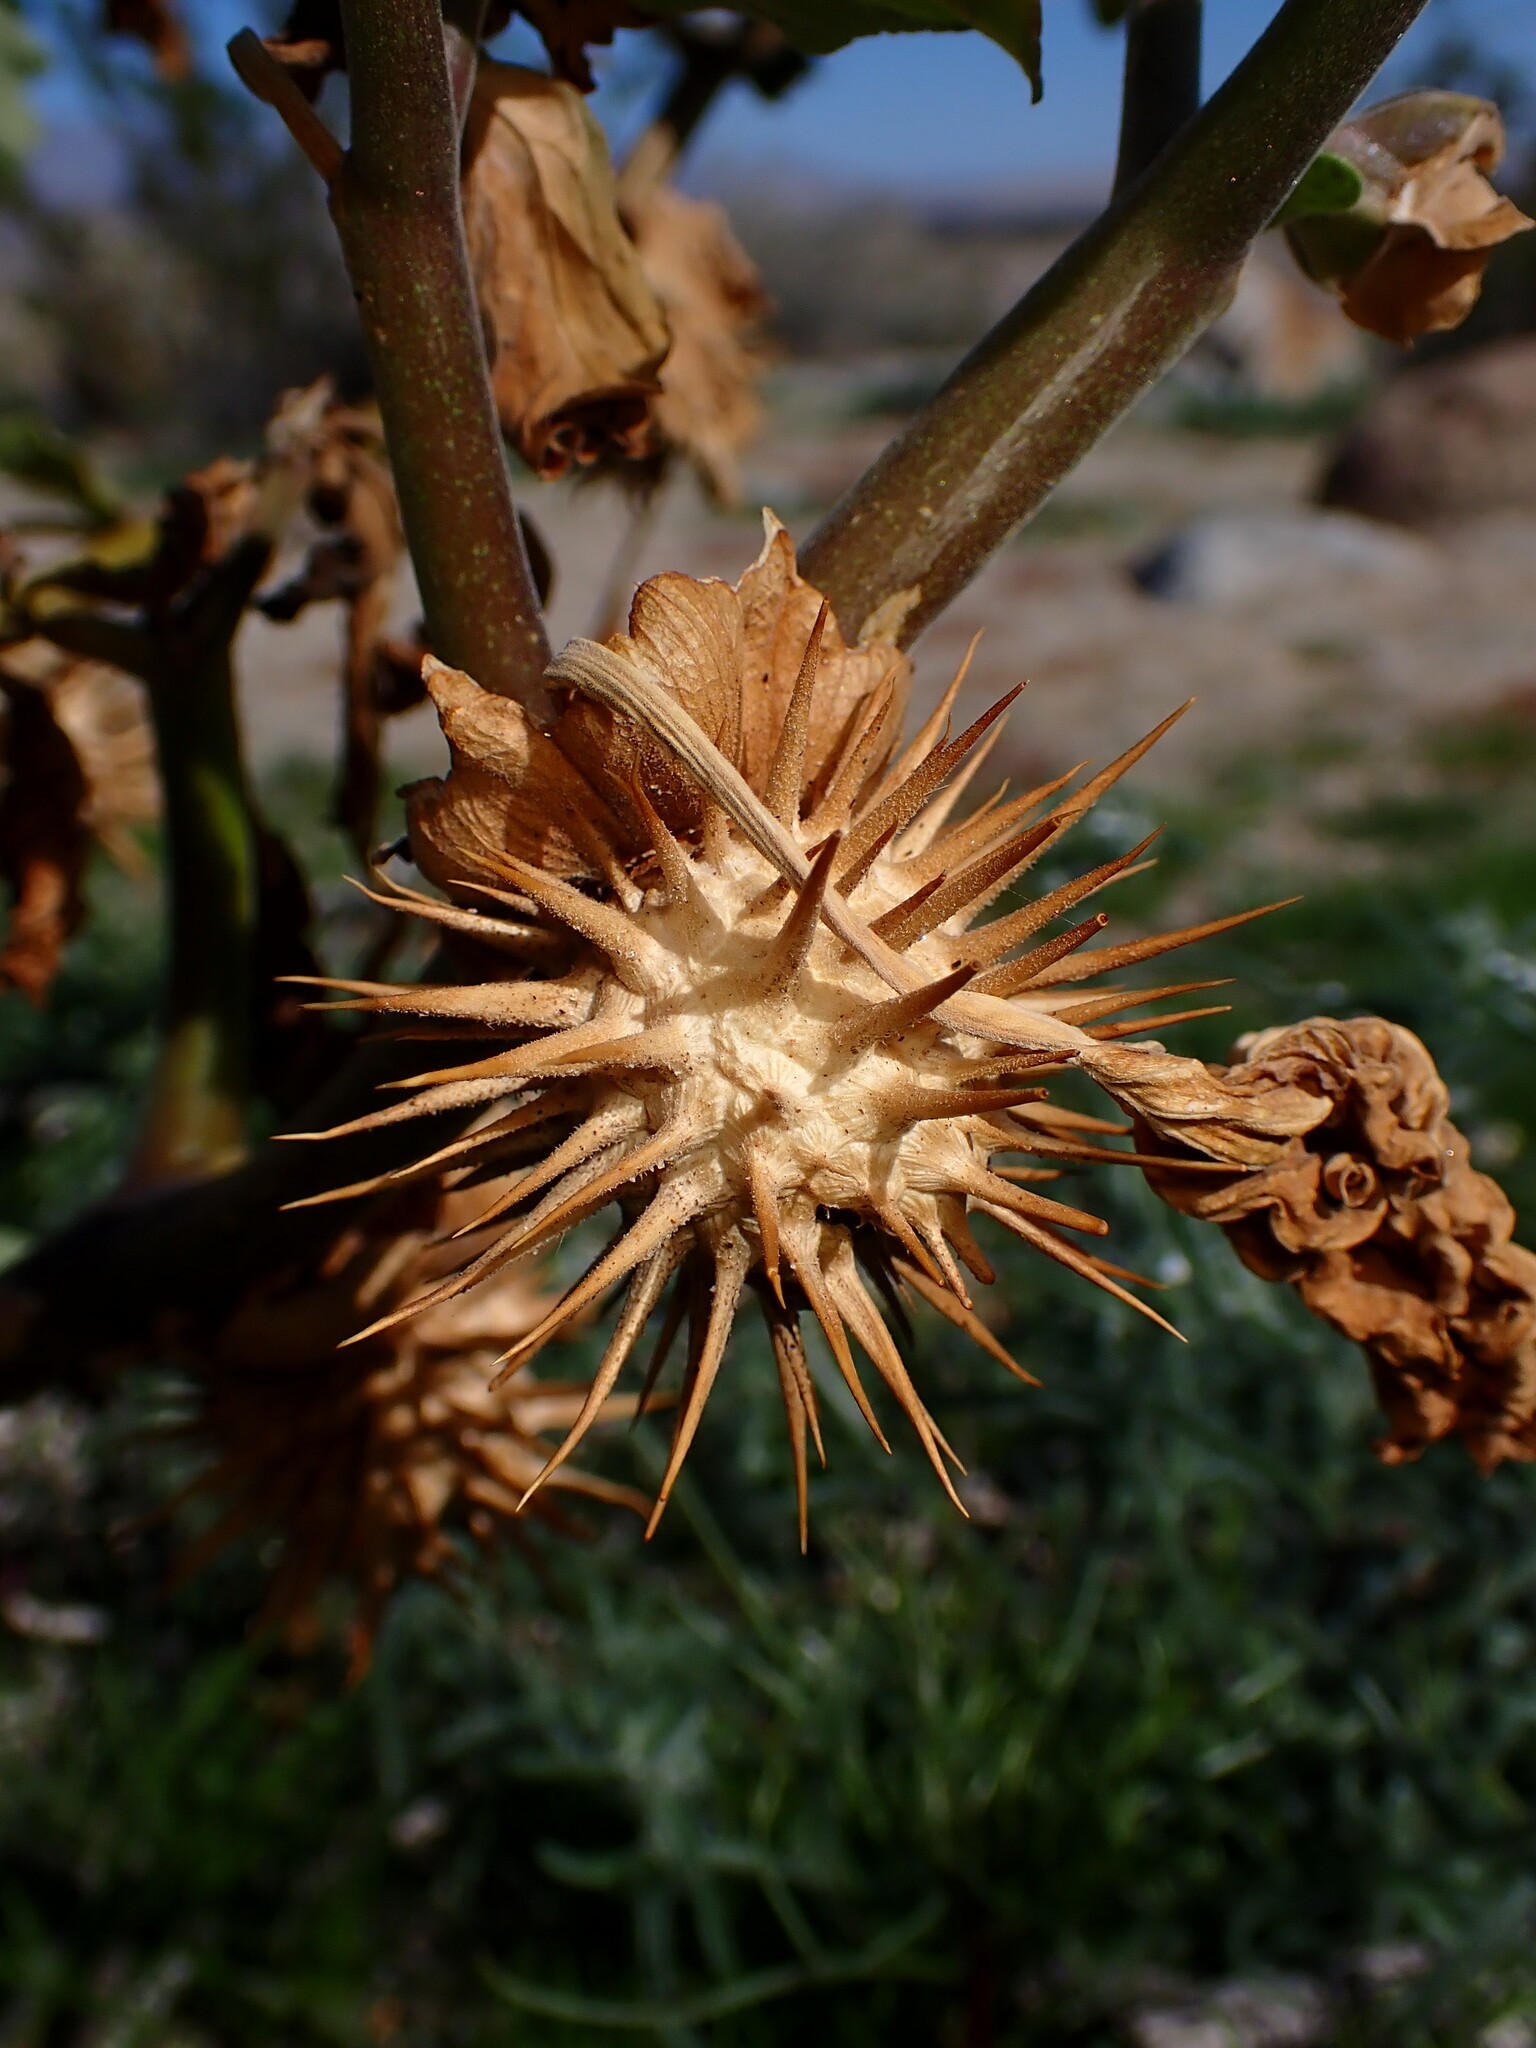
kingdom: Plantae
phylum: Tracheophyta
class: Magnoliopsida
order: Solanales
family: Solanaceae
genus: Datura
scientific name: Datura discolor
